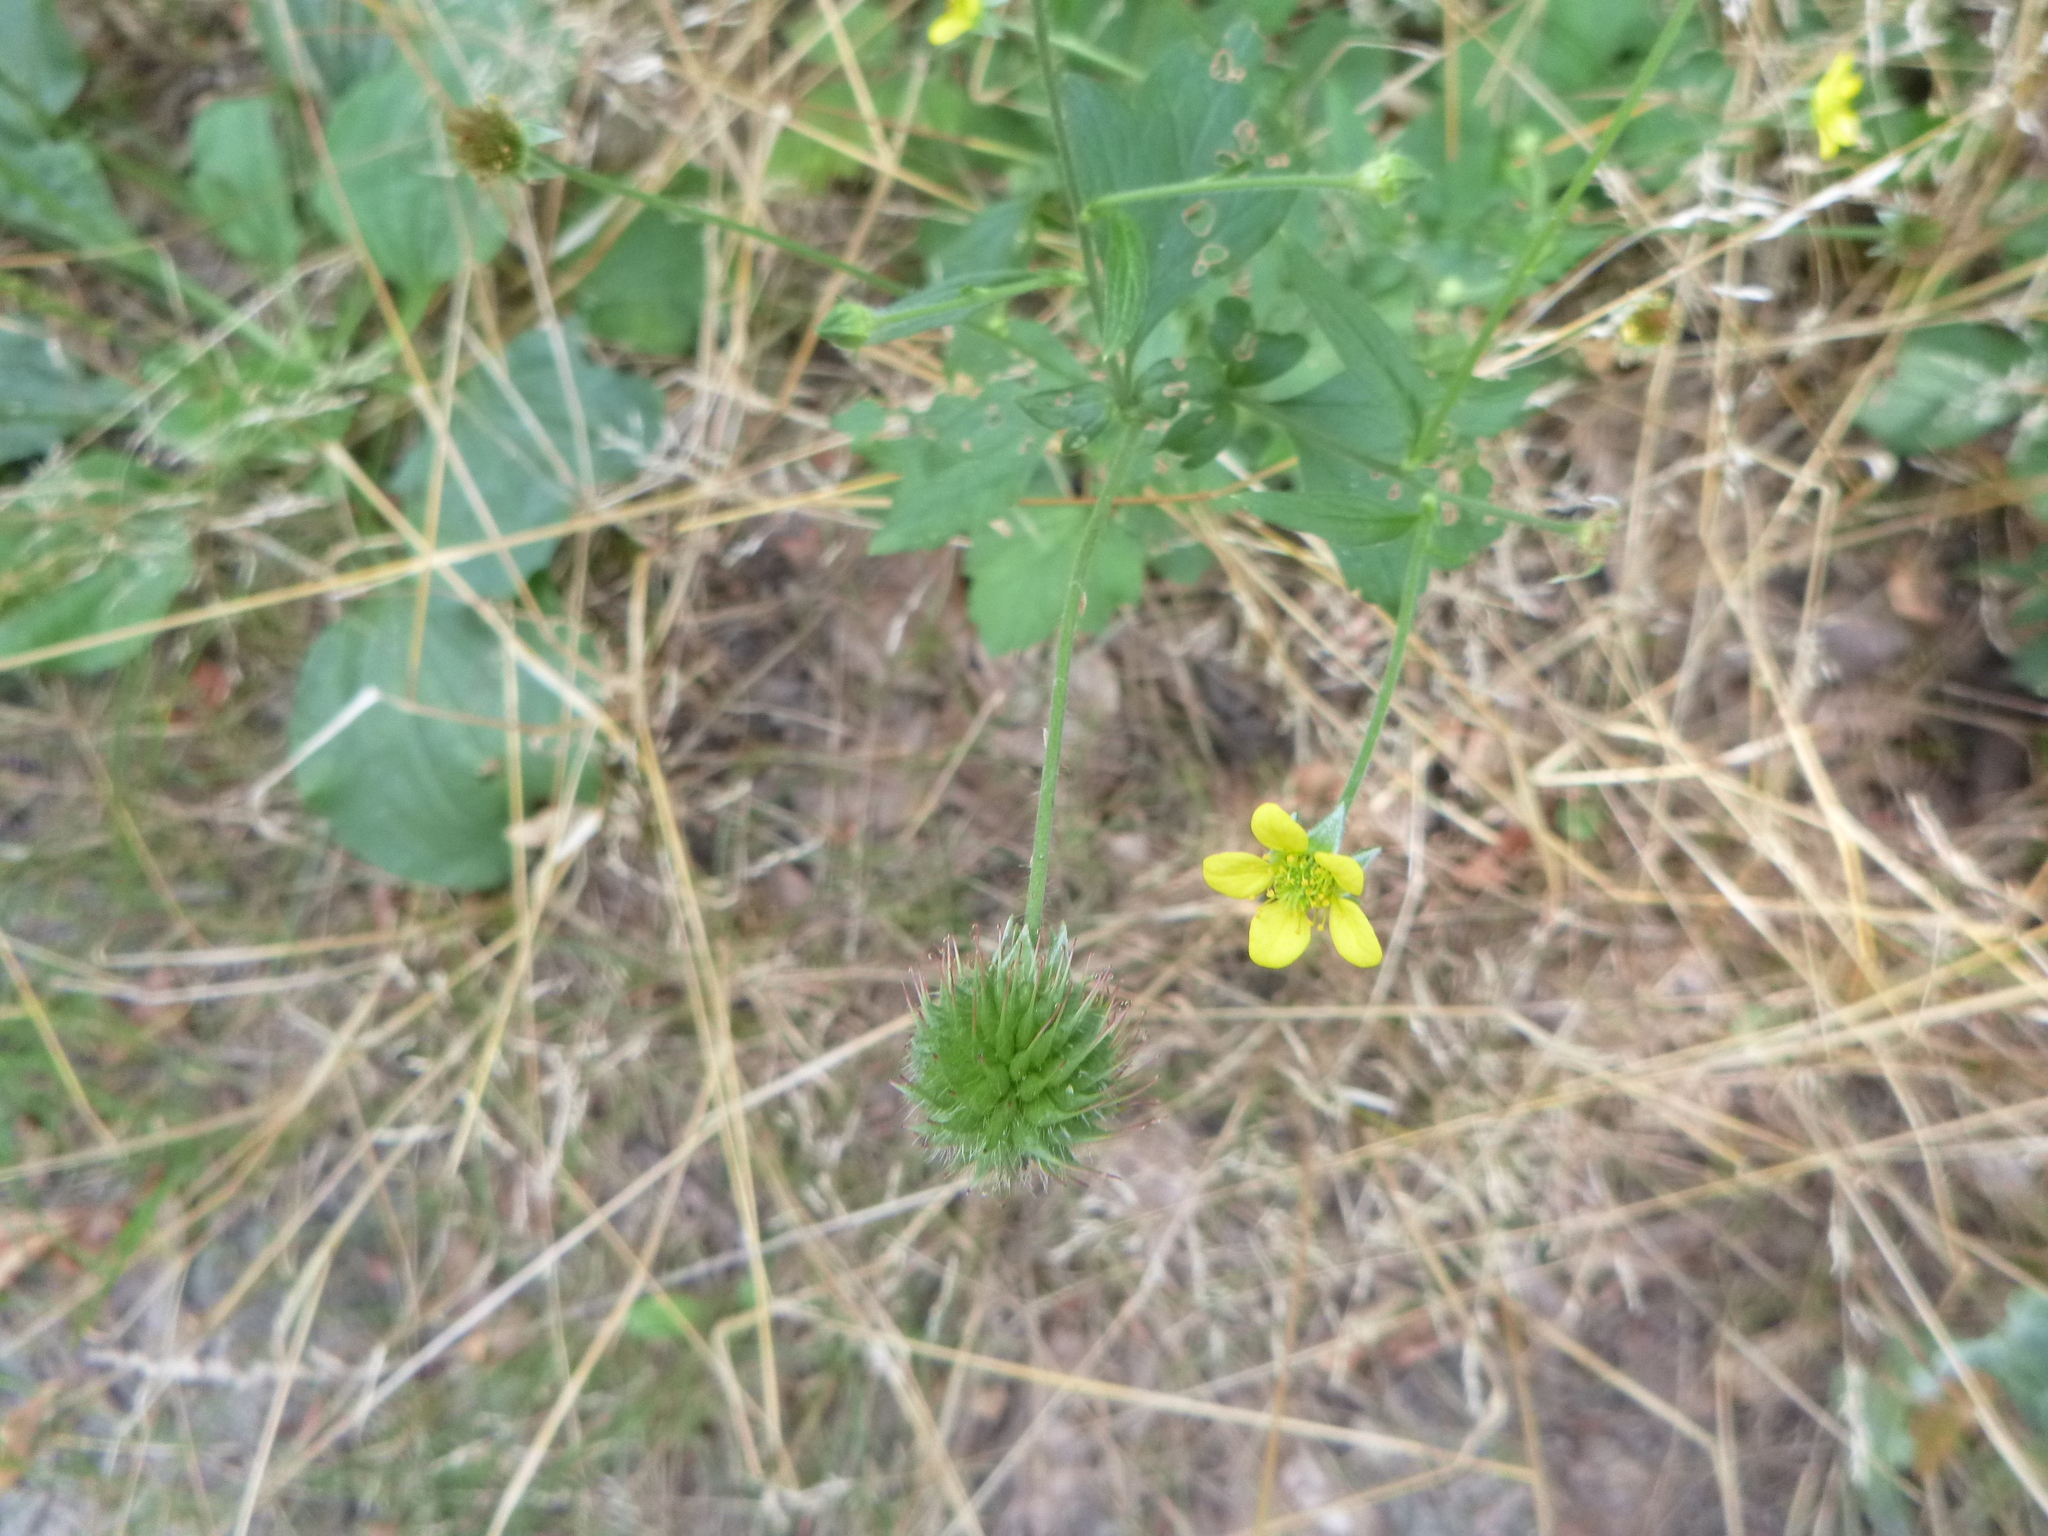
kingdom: Plantae
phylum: Tracheophyta
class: Magnoliopsida
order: Rosales
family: Rosaceae
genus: Geum
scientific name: Geum urbanum
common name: Wood avens
